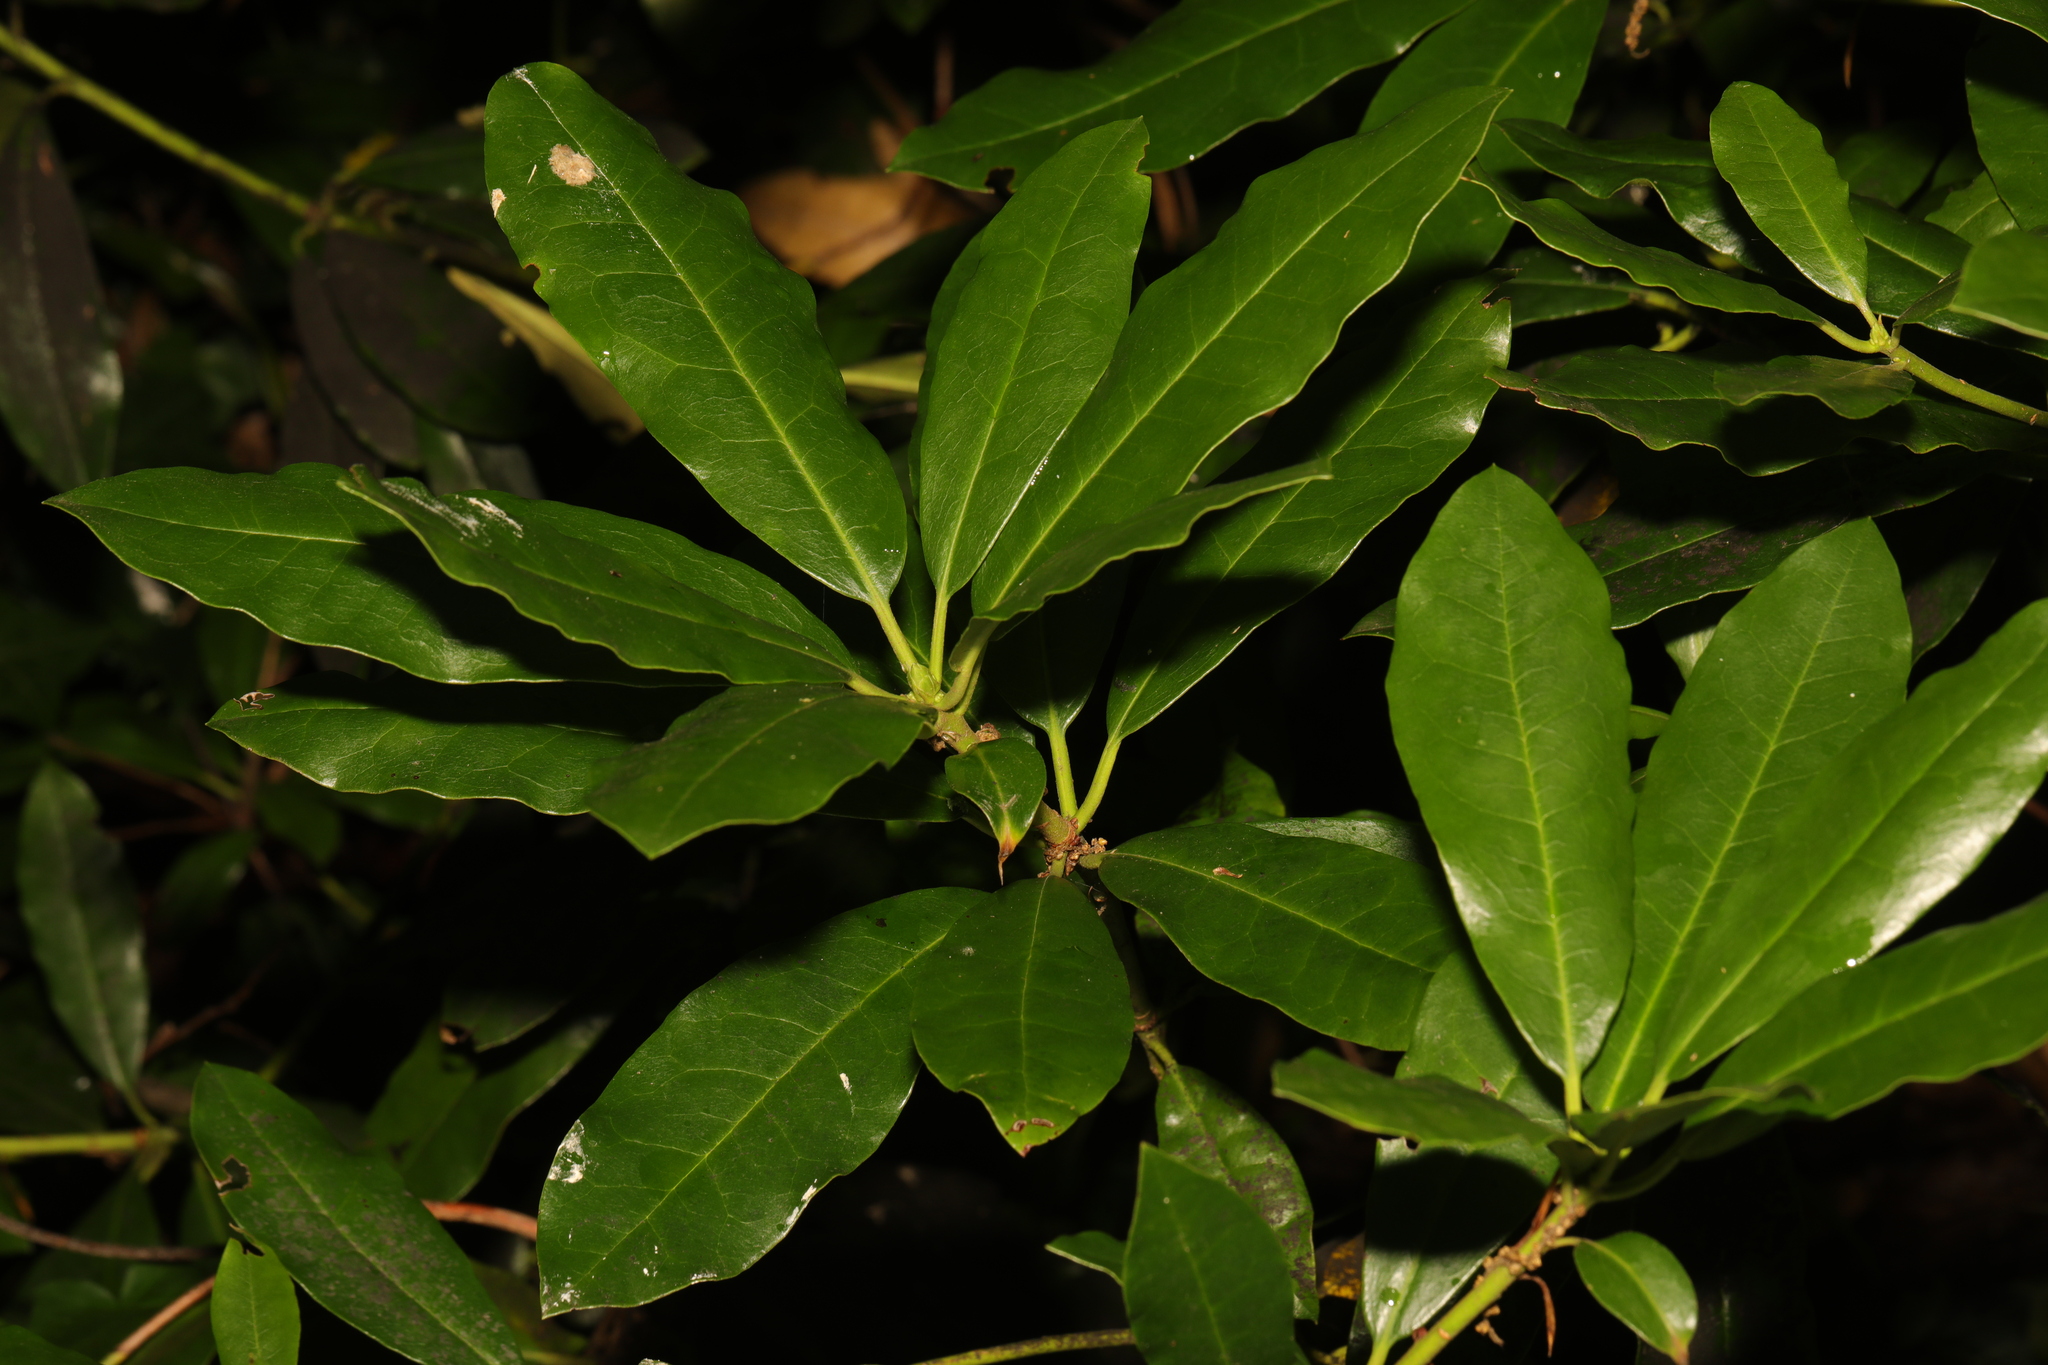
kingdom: Plantae
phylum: Tracheophyta
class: Magnoliopsida
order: Ericales
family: Ericaceae
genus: Rhododendron
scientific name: Rhododendron ponticum
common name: Rhododendron
